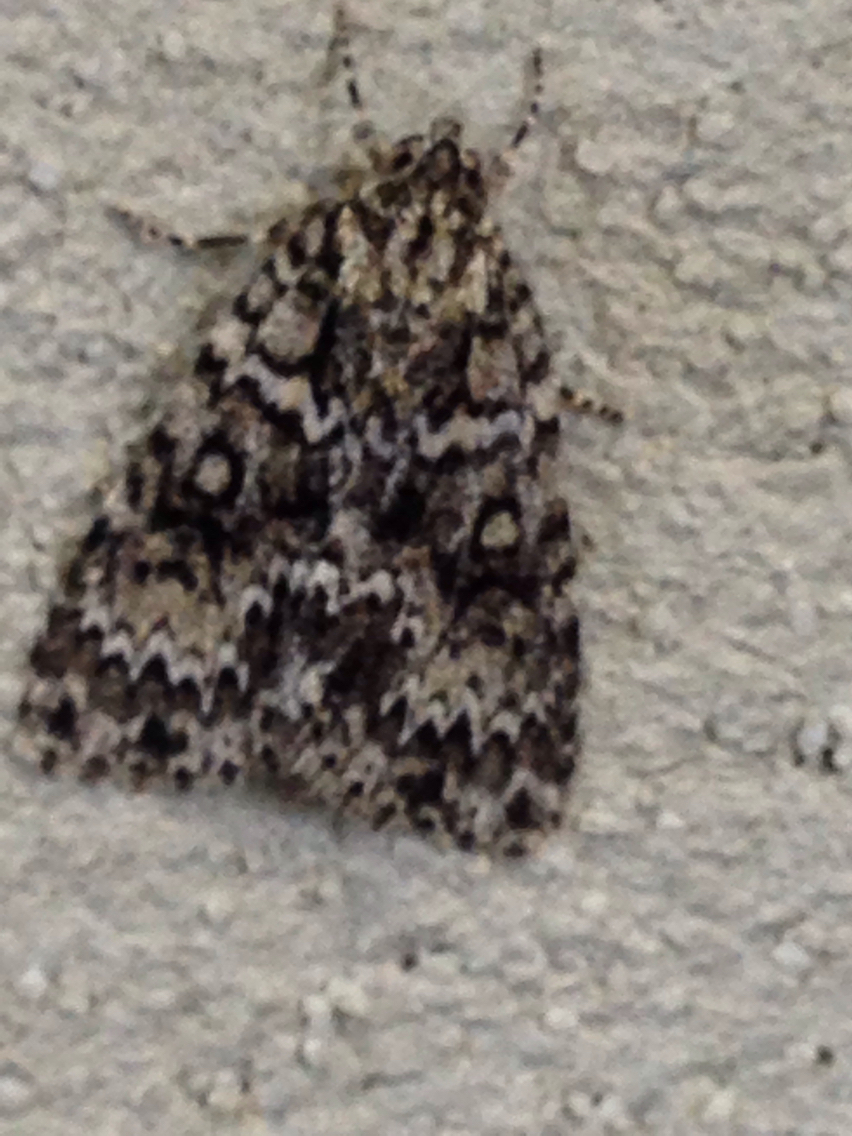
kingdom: Animalia
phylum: Arthropoda
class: Insecta
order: Lepidoptera
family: Noctuidae
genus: Acronicta
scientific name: Acronicta fragilis
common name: Fragile dagger
